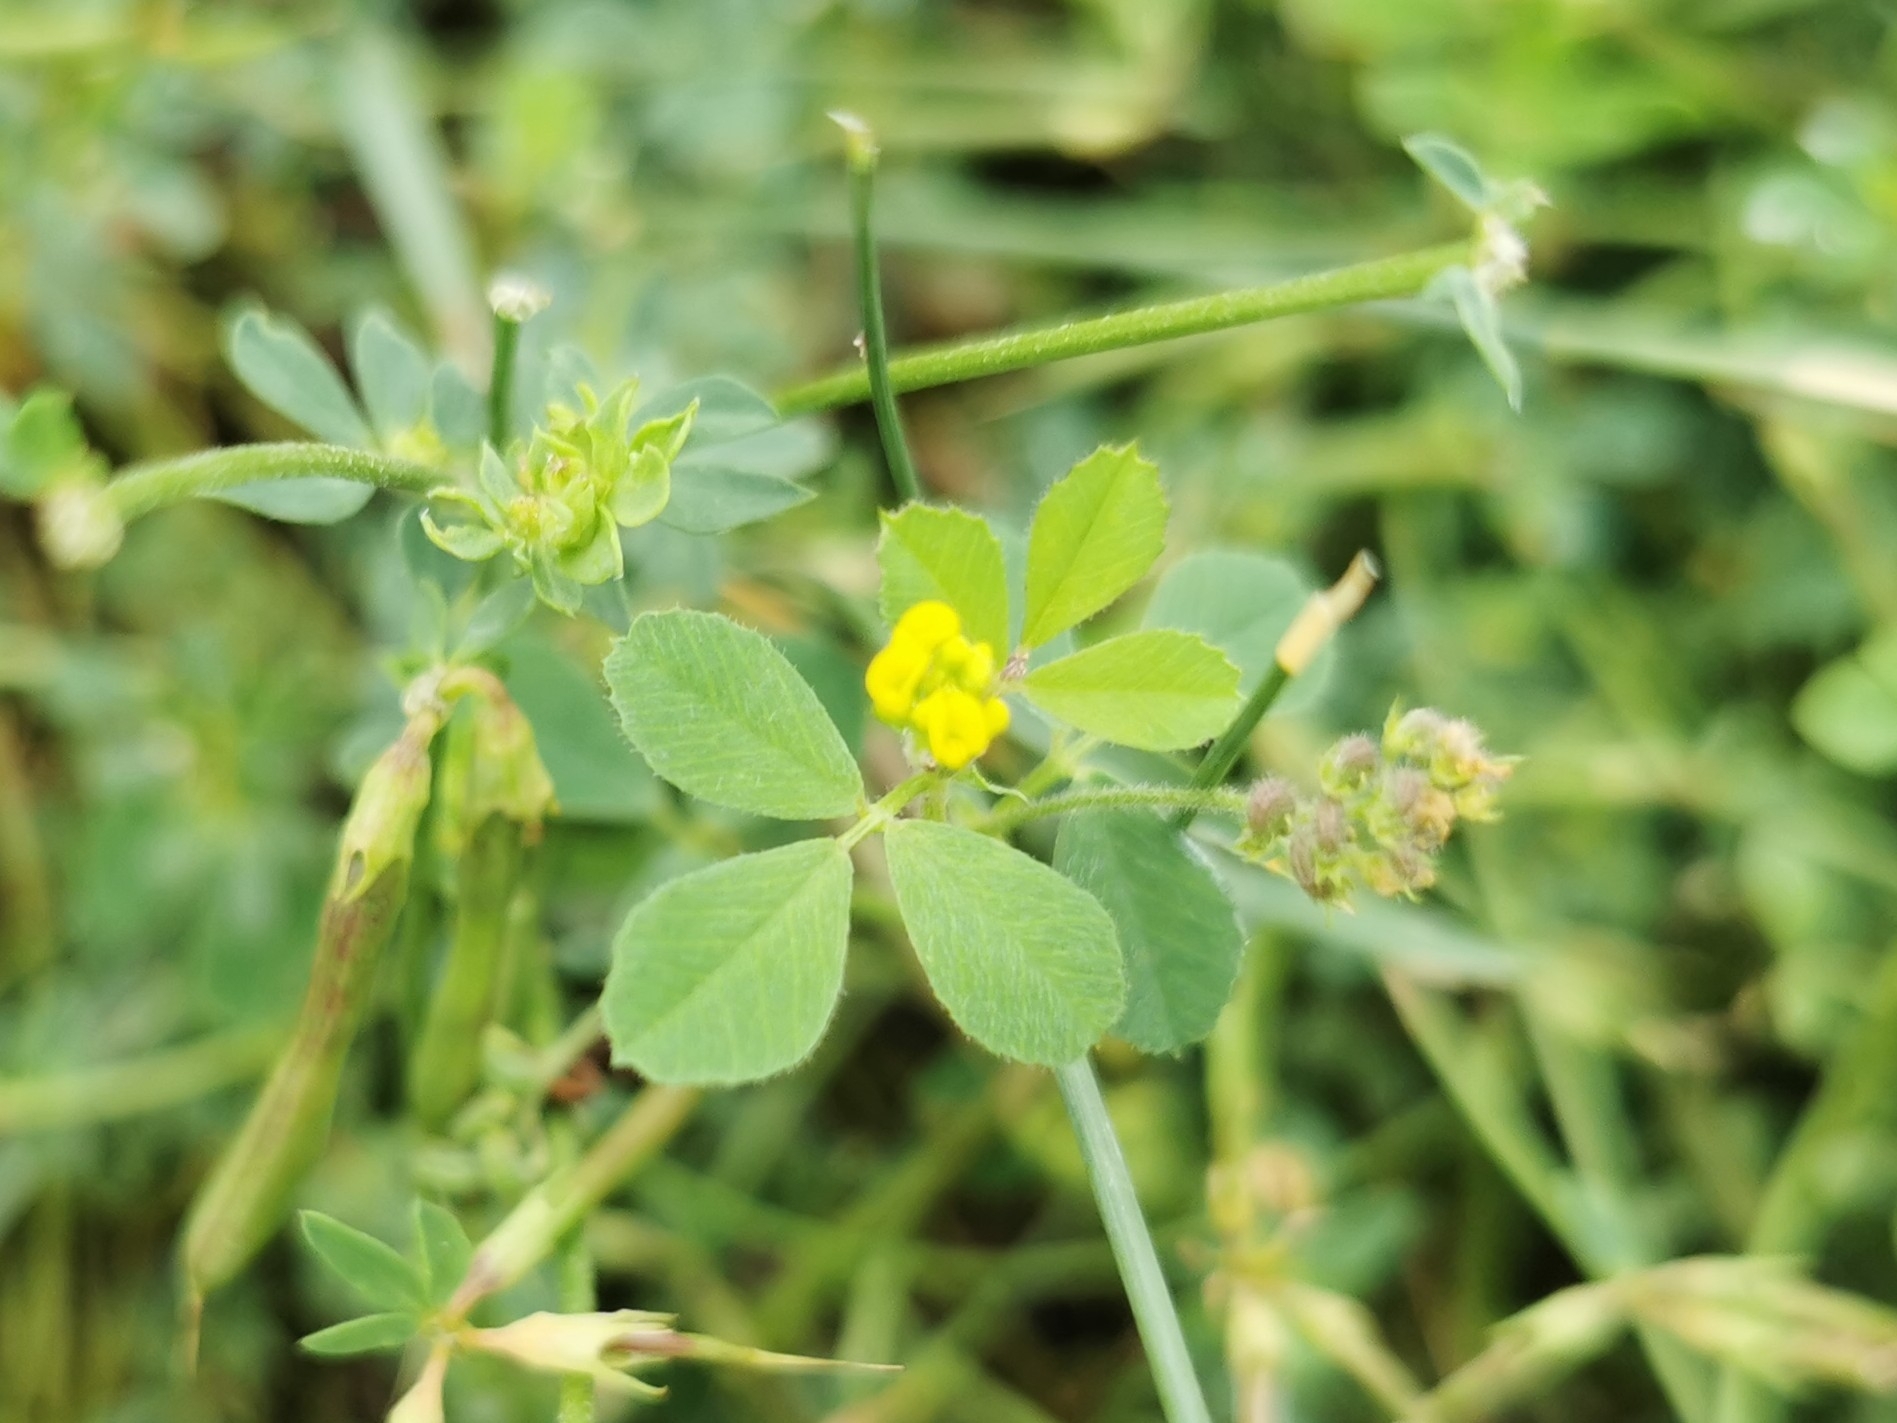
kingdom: Plantae
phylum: Tracheophyta
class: Magnoliopsida
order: Fabales
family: Fabaceae
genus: Medicago
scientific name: Medicago lupulina
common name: Black medick
